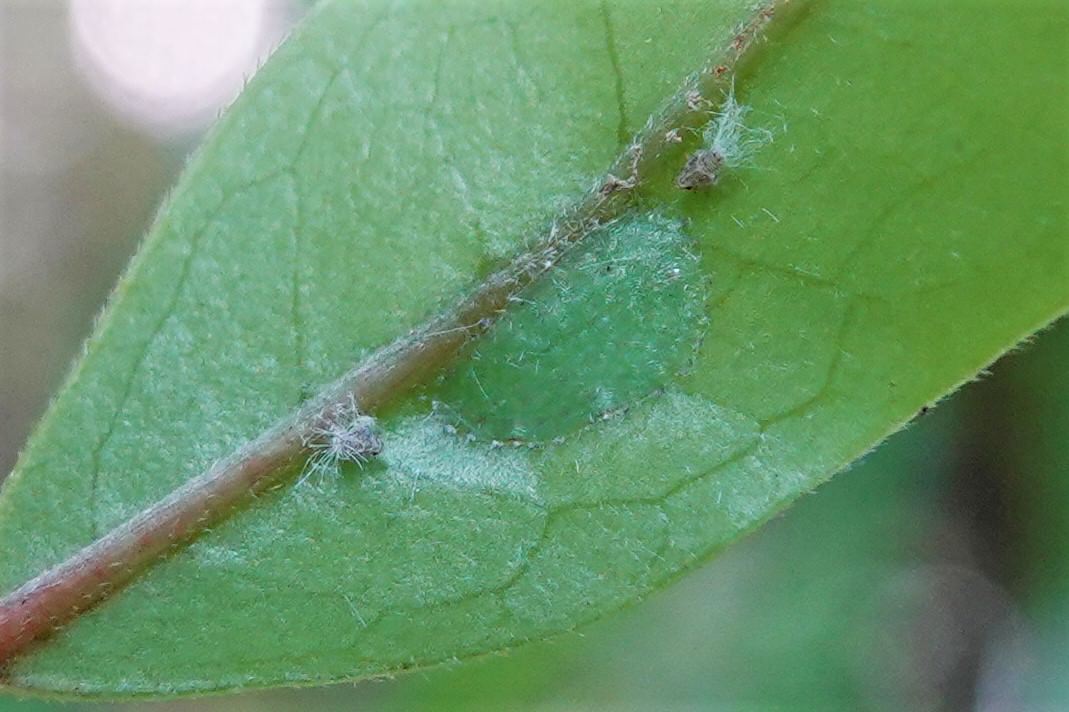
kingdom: Animalia
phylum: Arthropoda
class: Insecta
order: Hemiptera
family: Coccidae
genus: Ctenochiton
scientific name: Ctenochiton paraviridis
